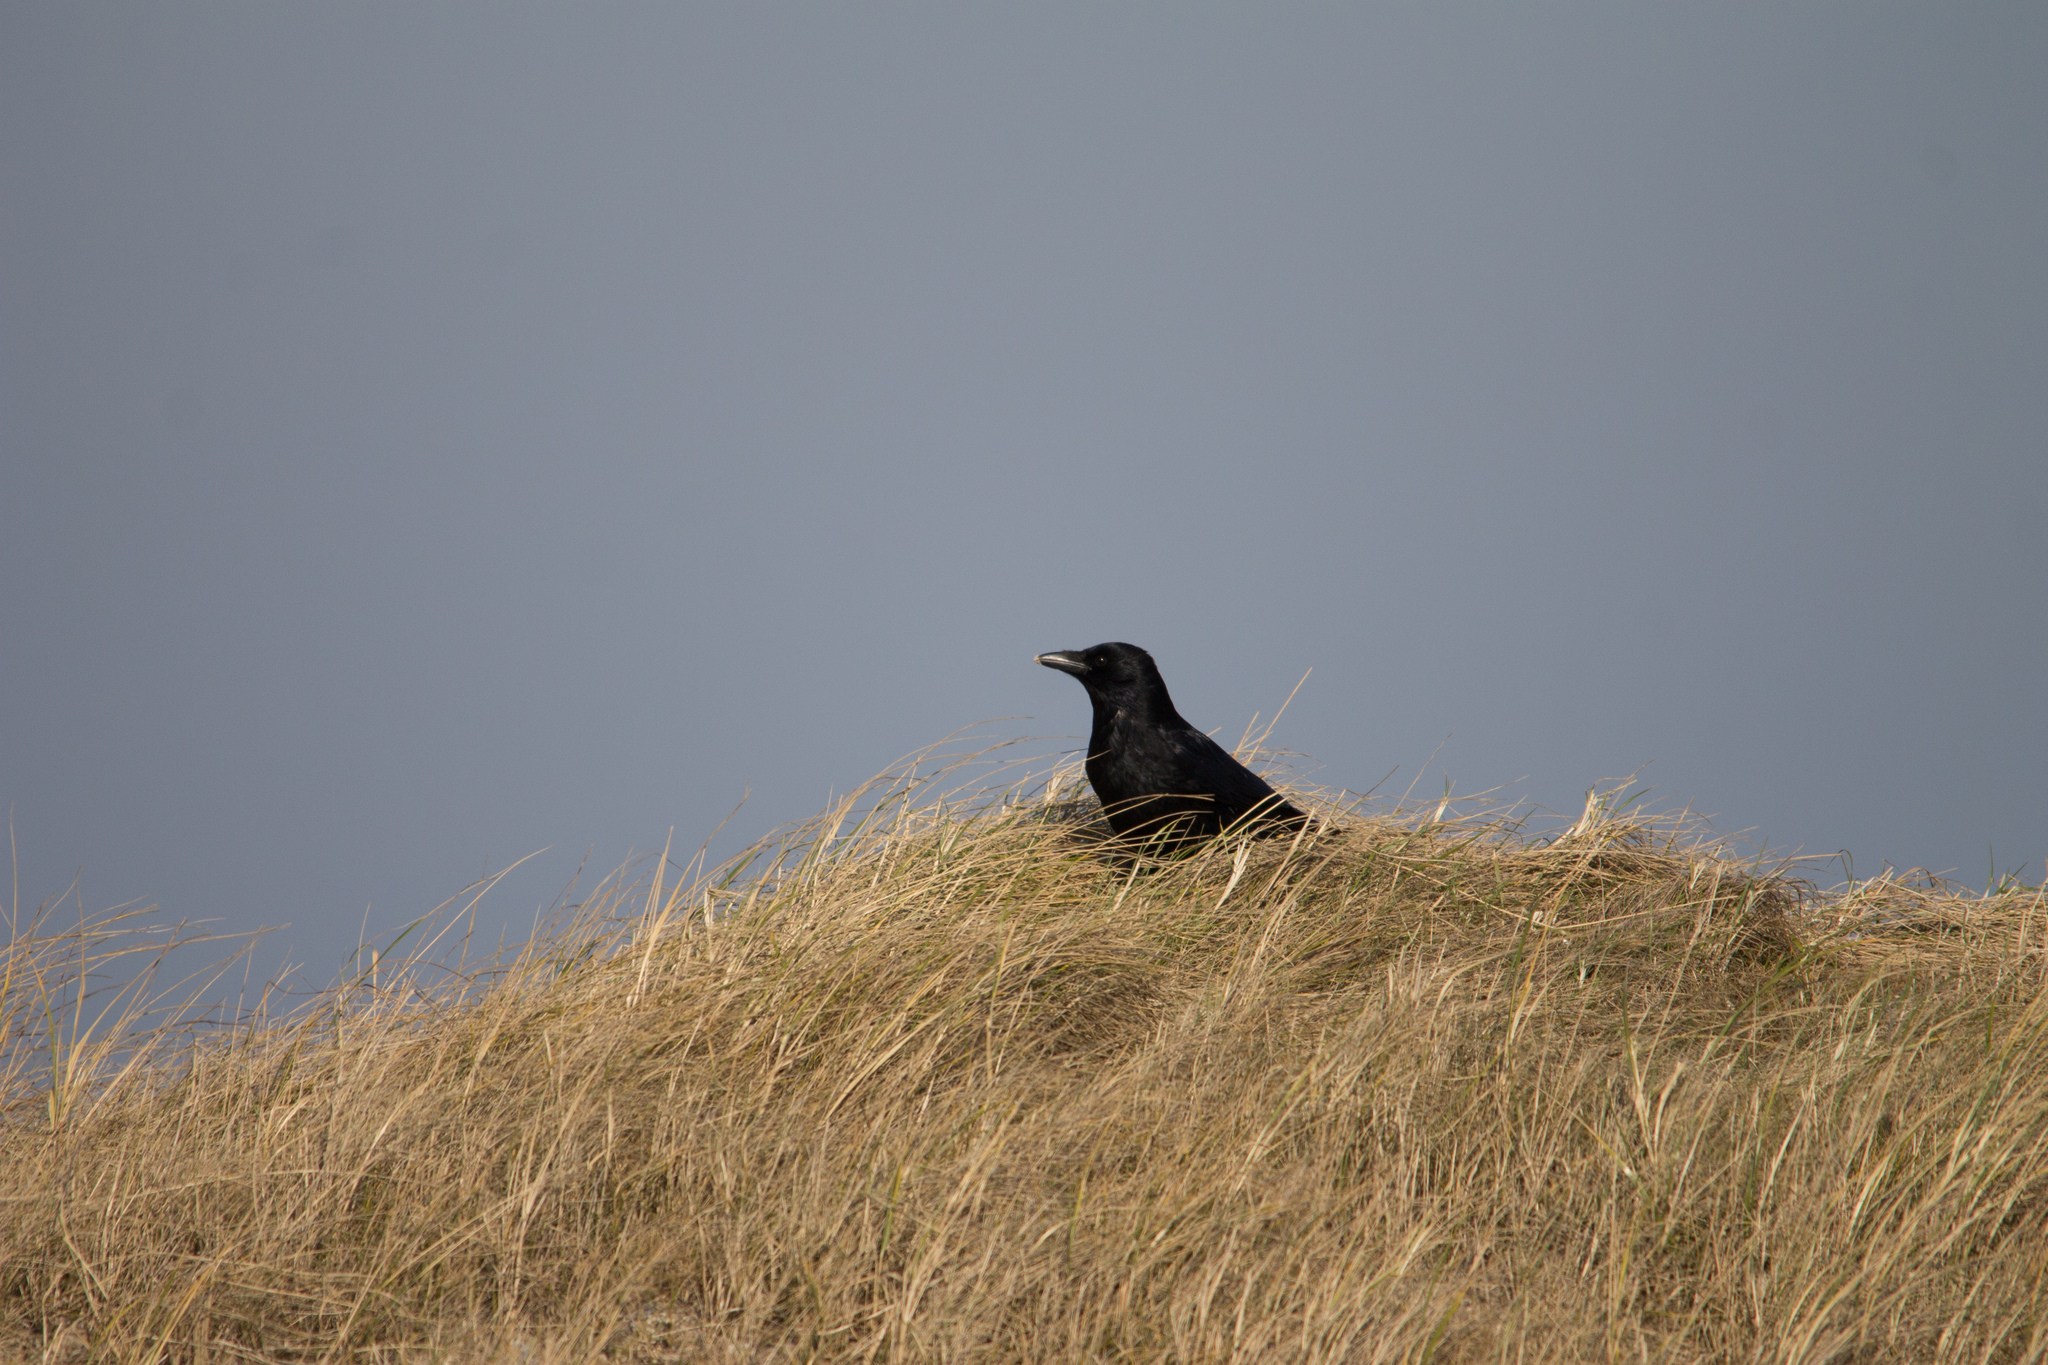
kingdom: Animalia
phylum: Chordata
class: Aves
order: Passeriformes
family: Corvidae
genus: Corvus
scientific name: Corvus corone
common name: Carrion crow
